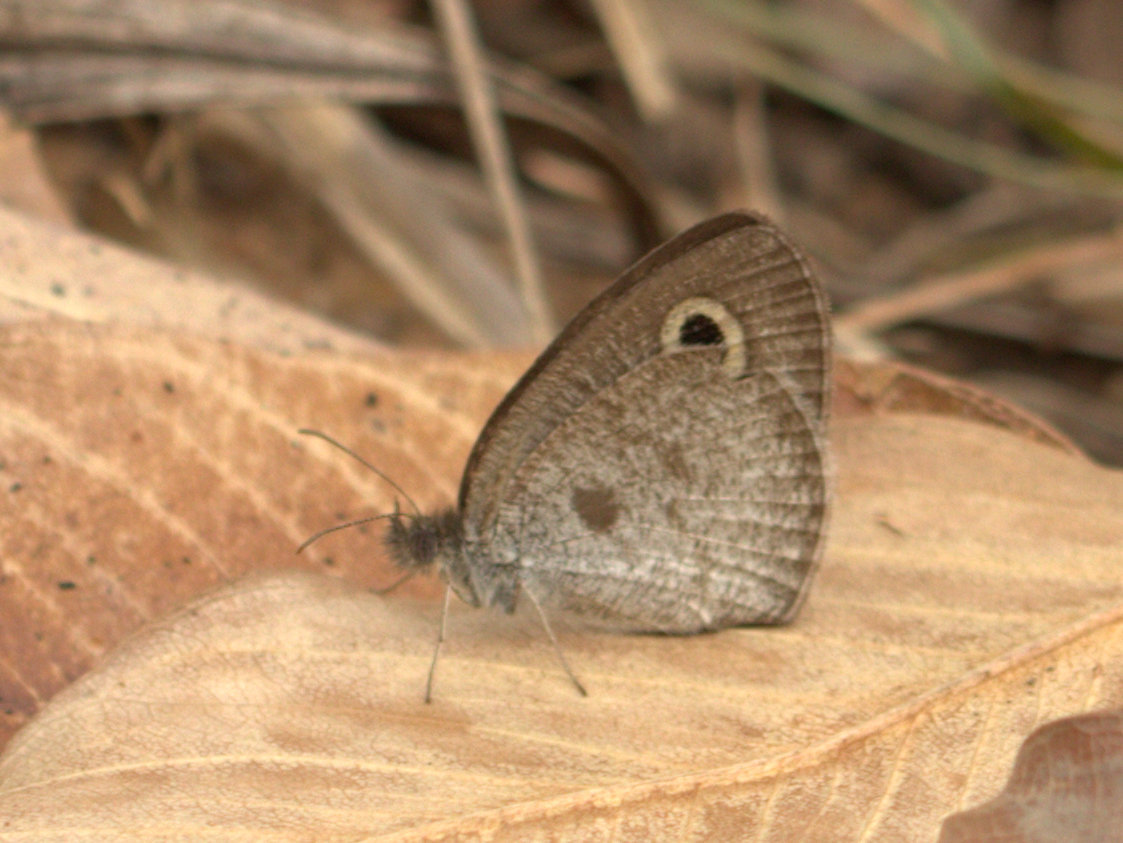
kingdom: Animalia
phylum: Arthropoda
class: Insecta
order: Lepidoptera
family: Nymphalidae
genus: Ypthima
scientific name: Ypthima huebneri
